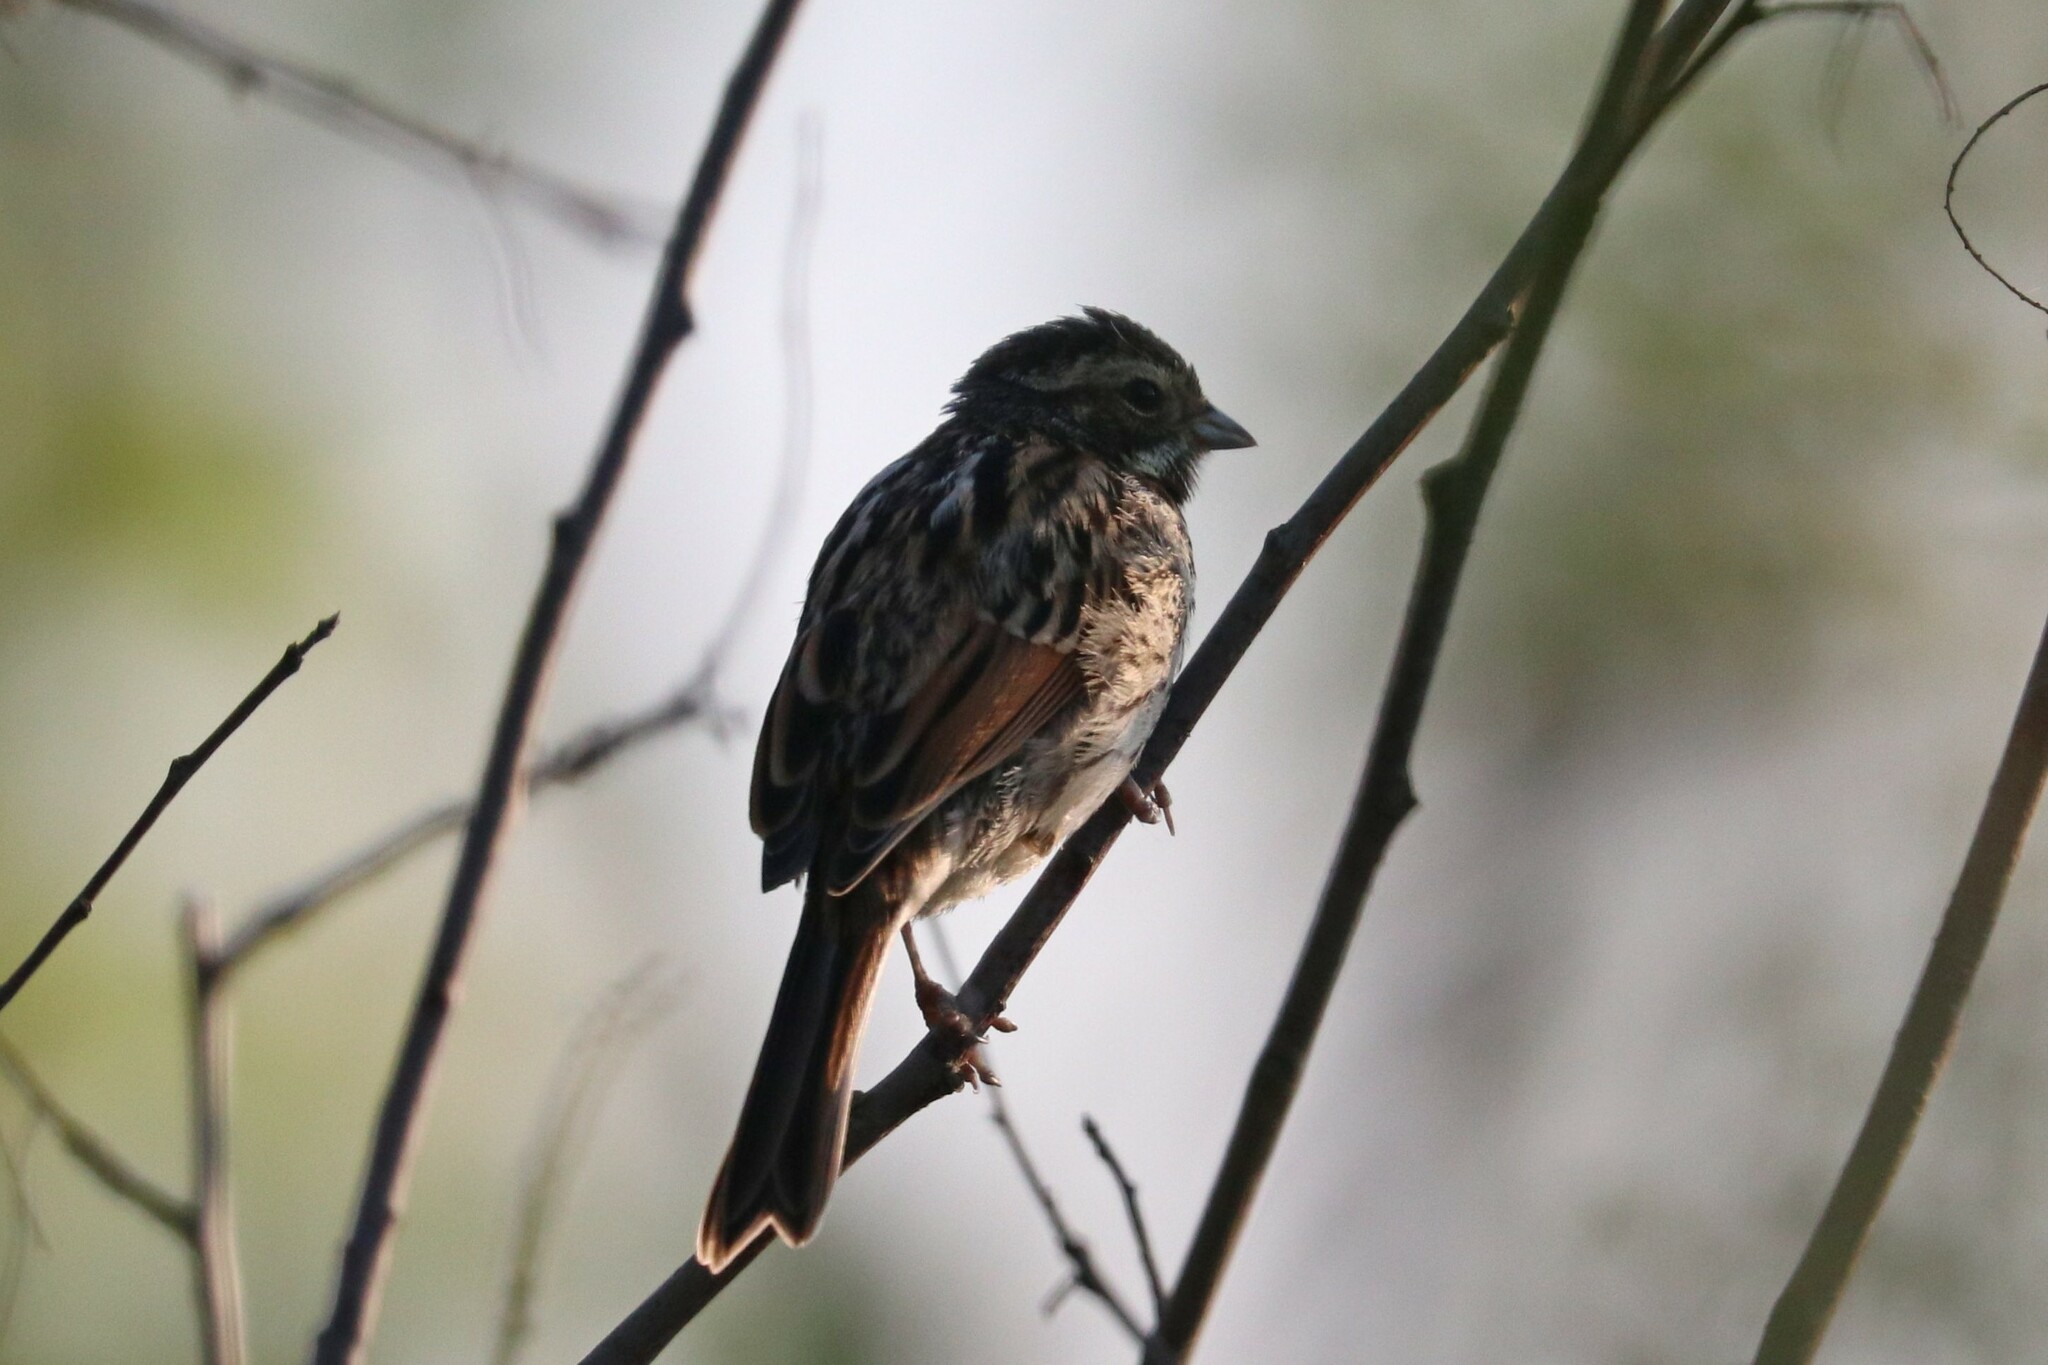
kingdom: Animalia
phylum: Chordata
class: Aves
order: Passeriformes
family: Emberizidae
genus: Emberiza
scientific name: Emberiza schoeniclus
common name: Reed bunting
